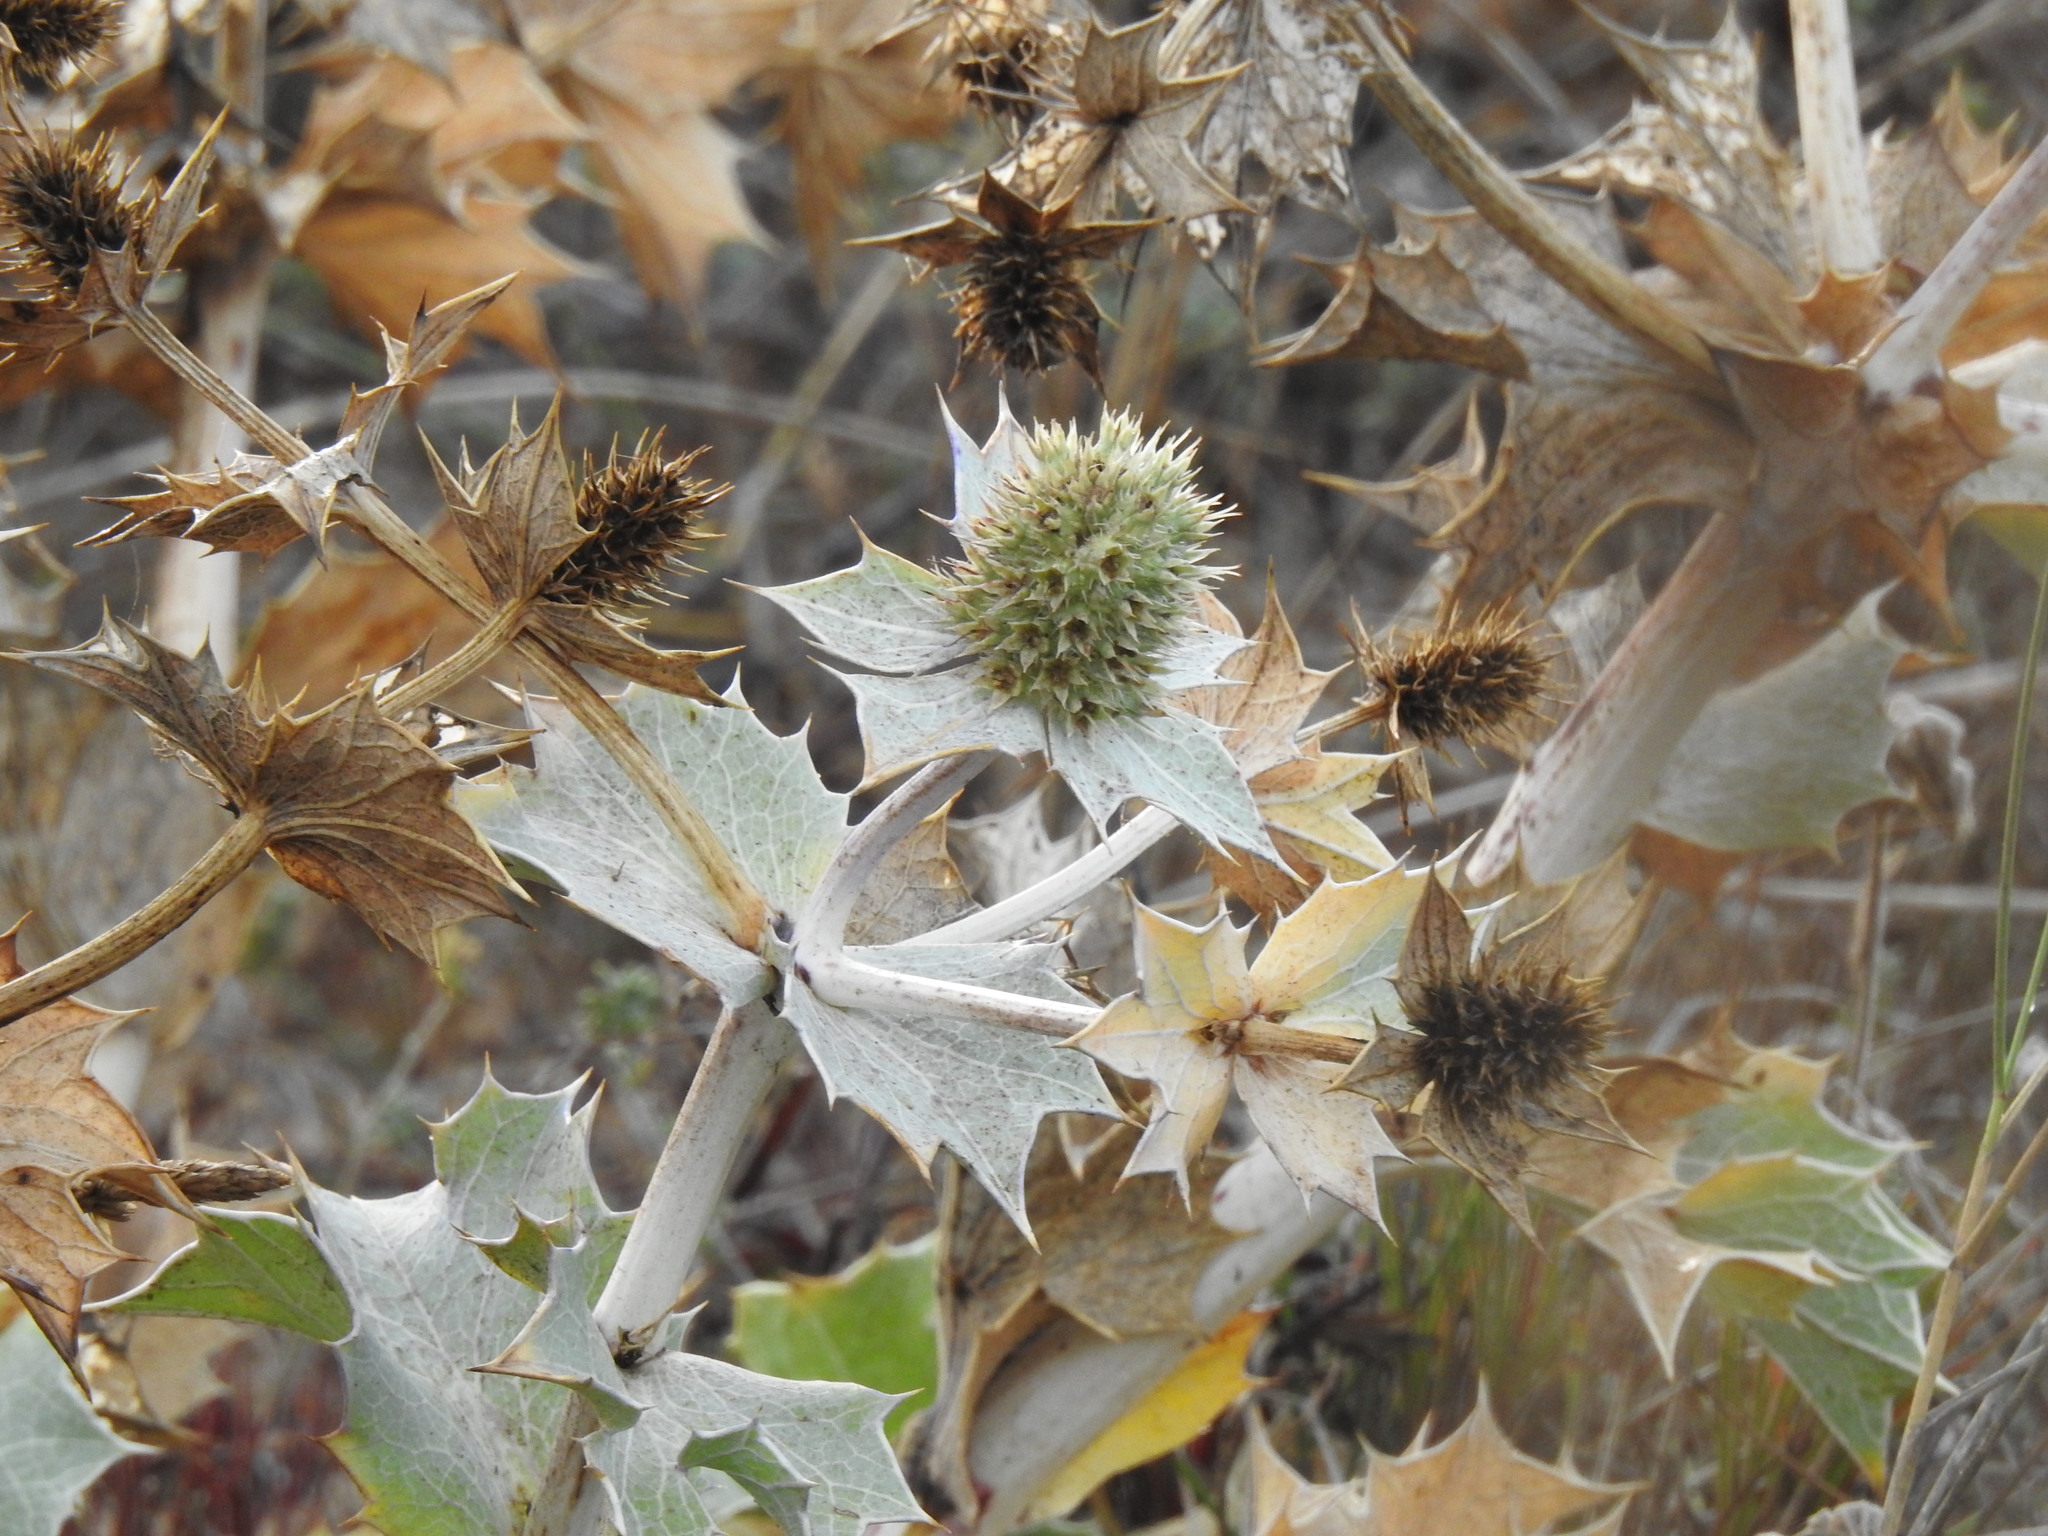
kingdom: Plantae
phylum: Tracheophyta
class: Magnoliopsida
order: Apiales
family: Apiaceae
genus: Eryngium
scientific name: Eryngium maritimum
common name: Sea-holly
